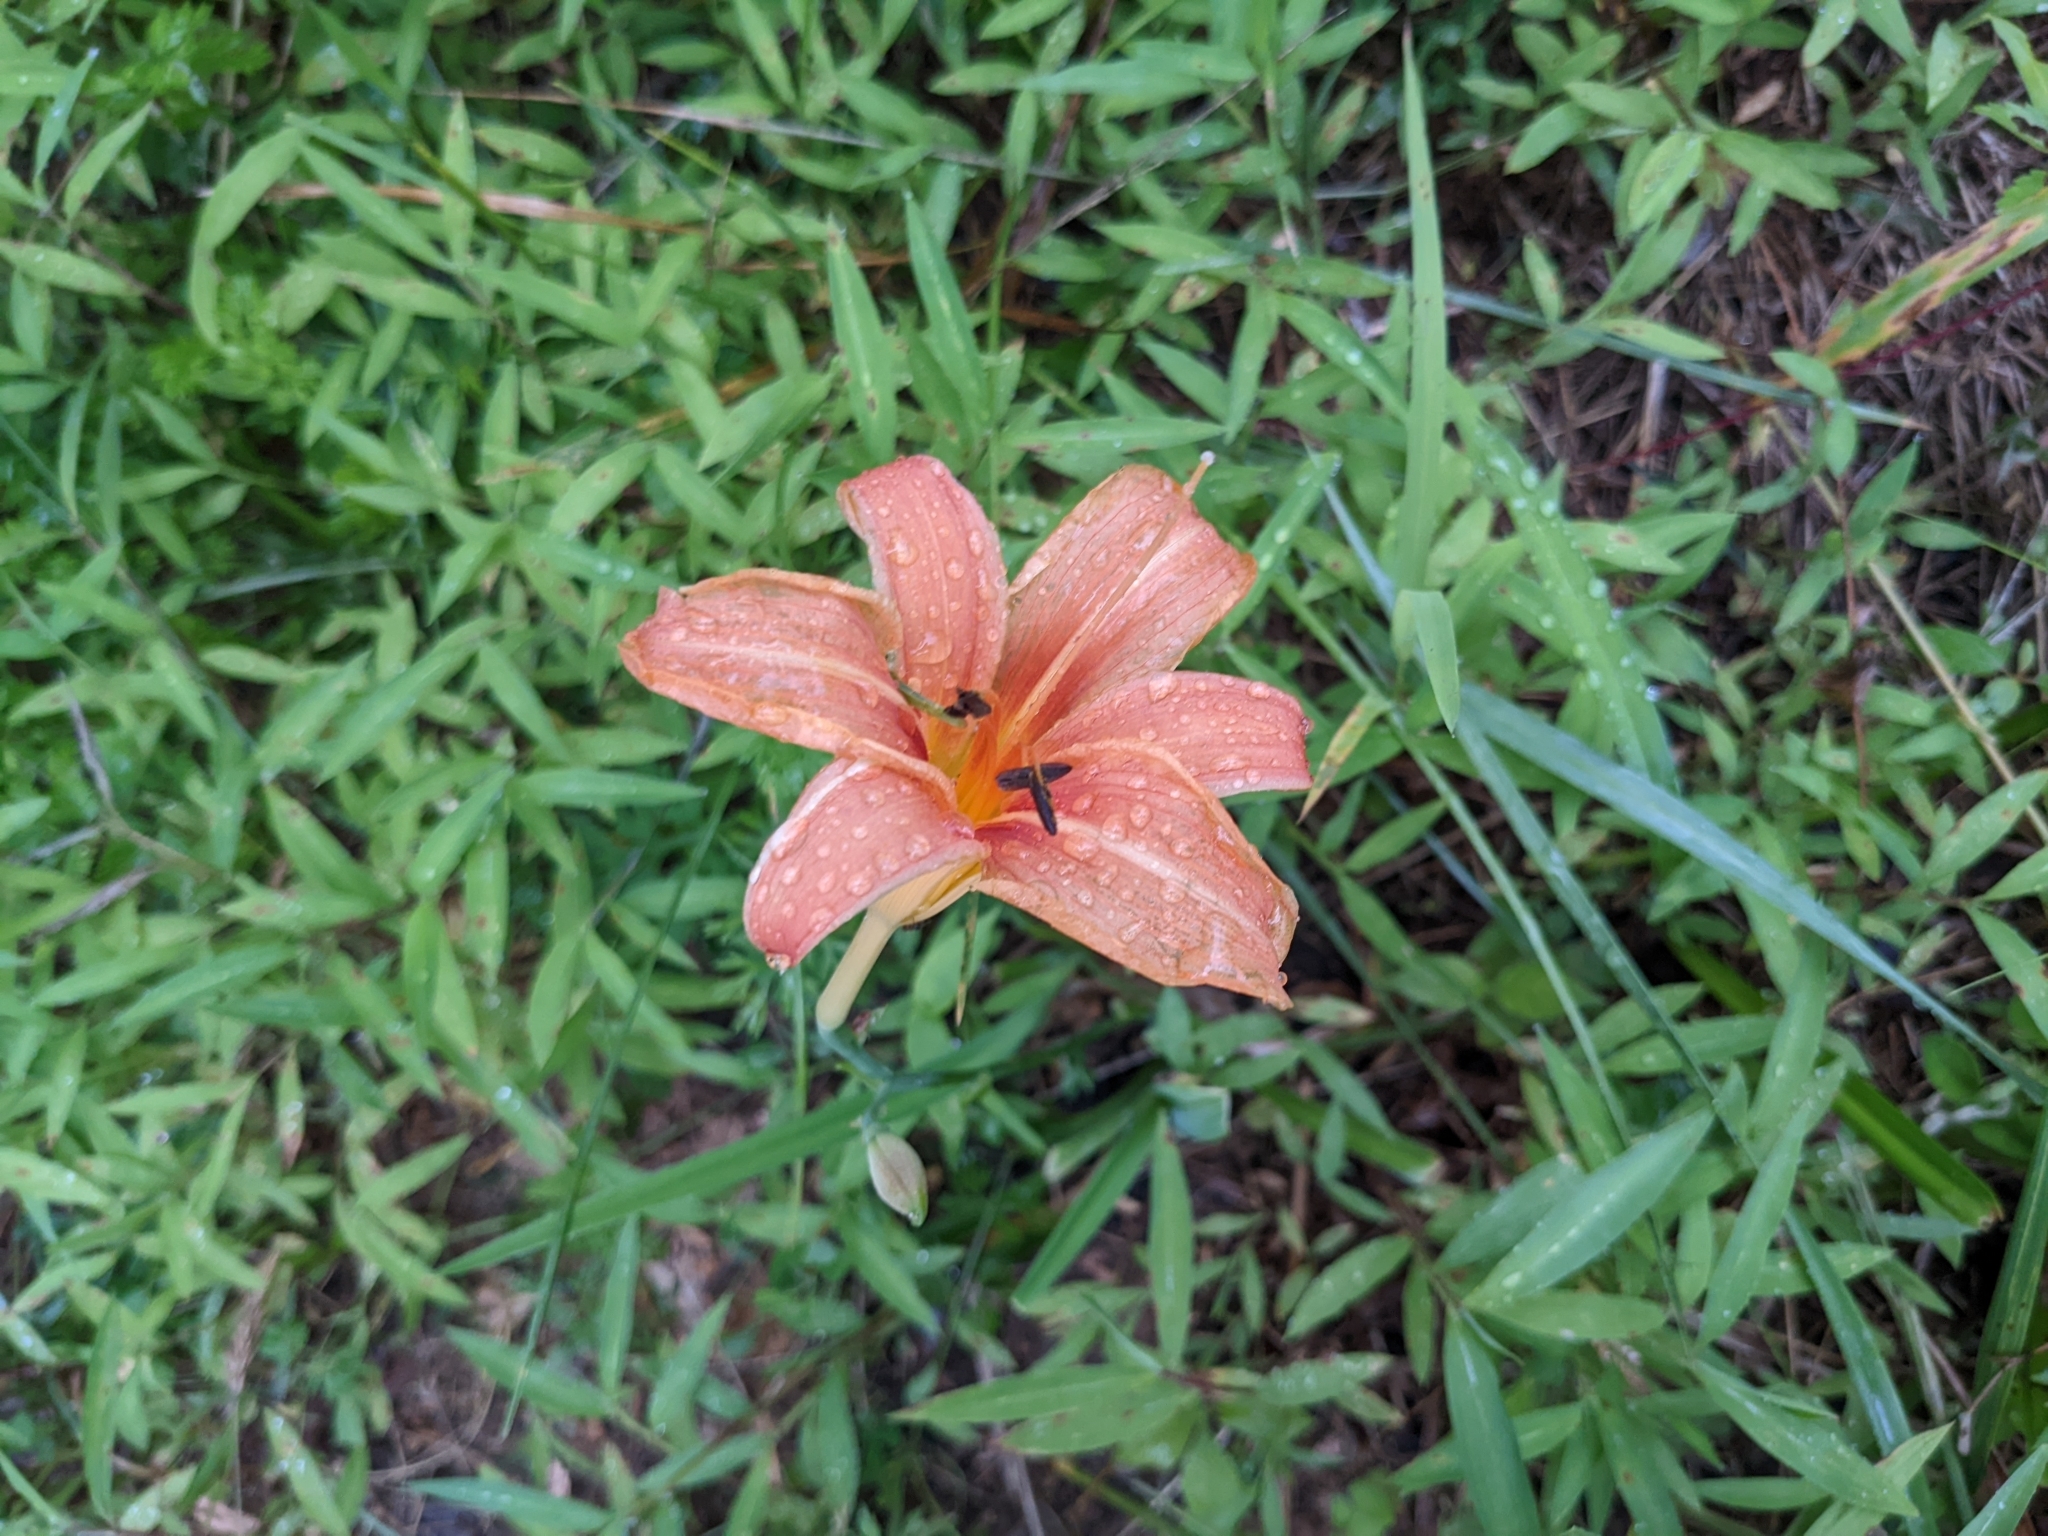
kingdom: Plantae
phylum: Tracheophyta
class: Liliopsida
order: Asparagales
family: Asphodelaceae
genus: Hemerocallis
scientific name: Hemerocallis fulva
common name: Orange day-lily
